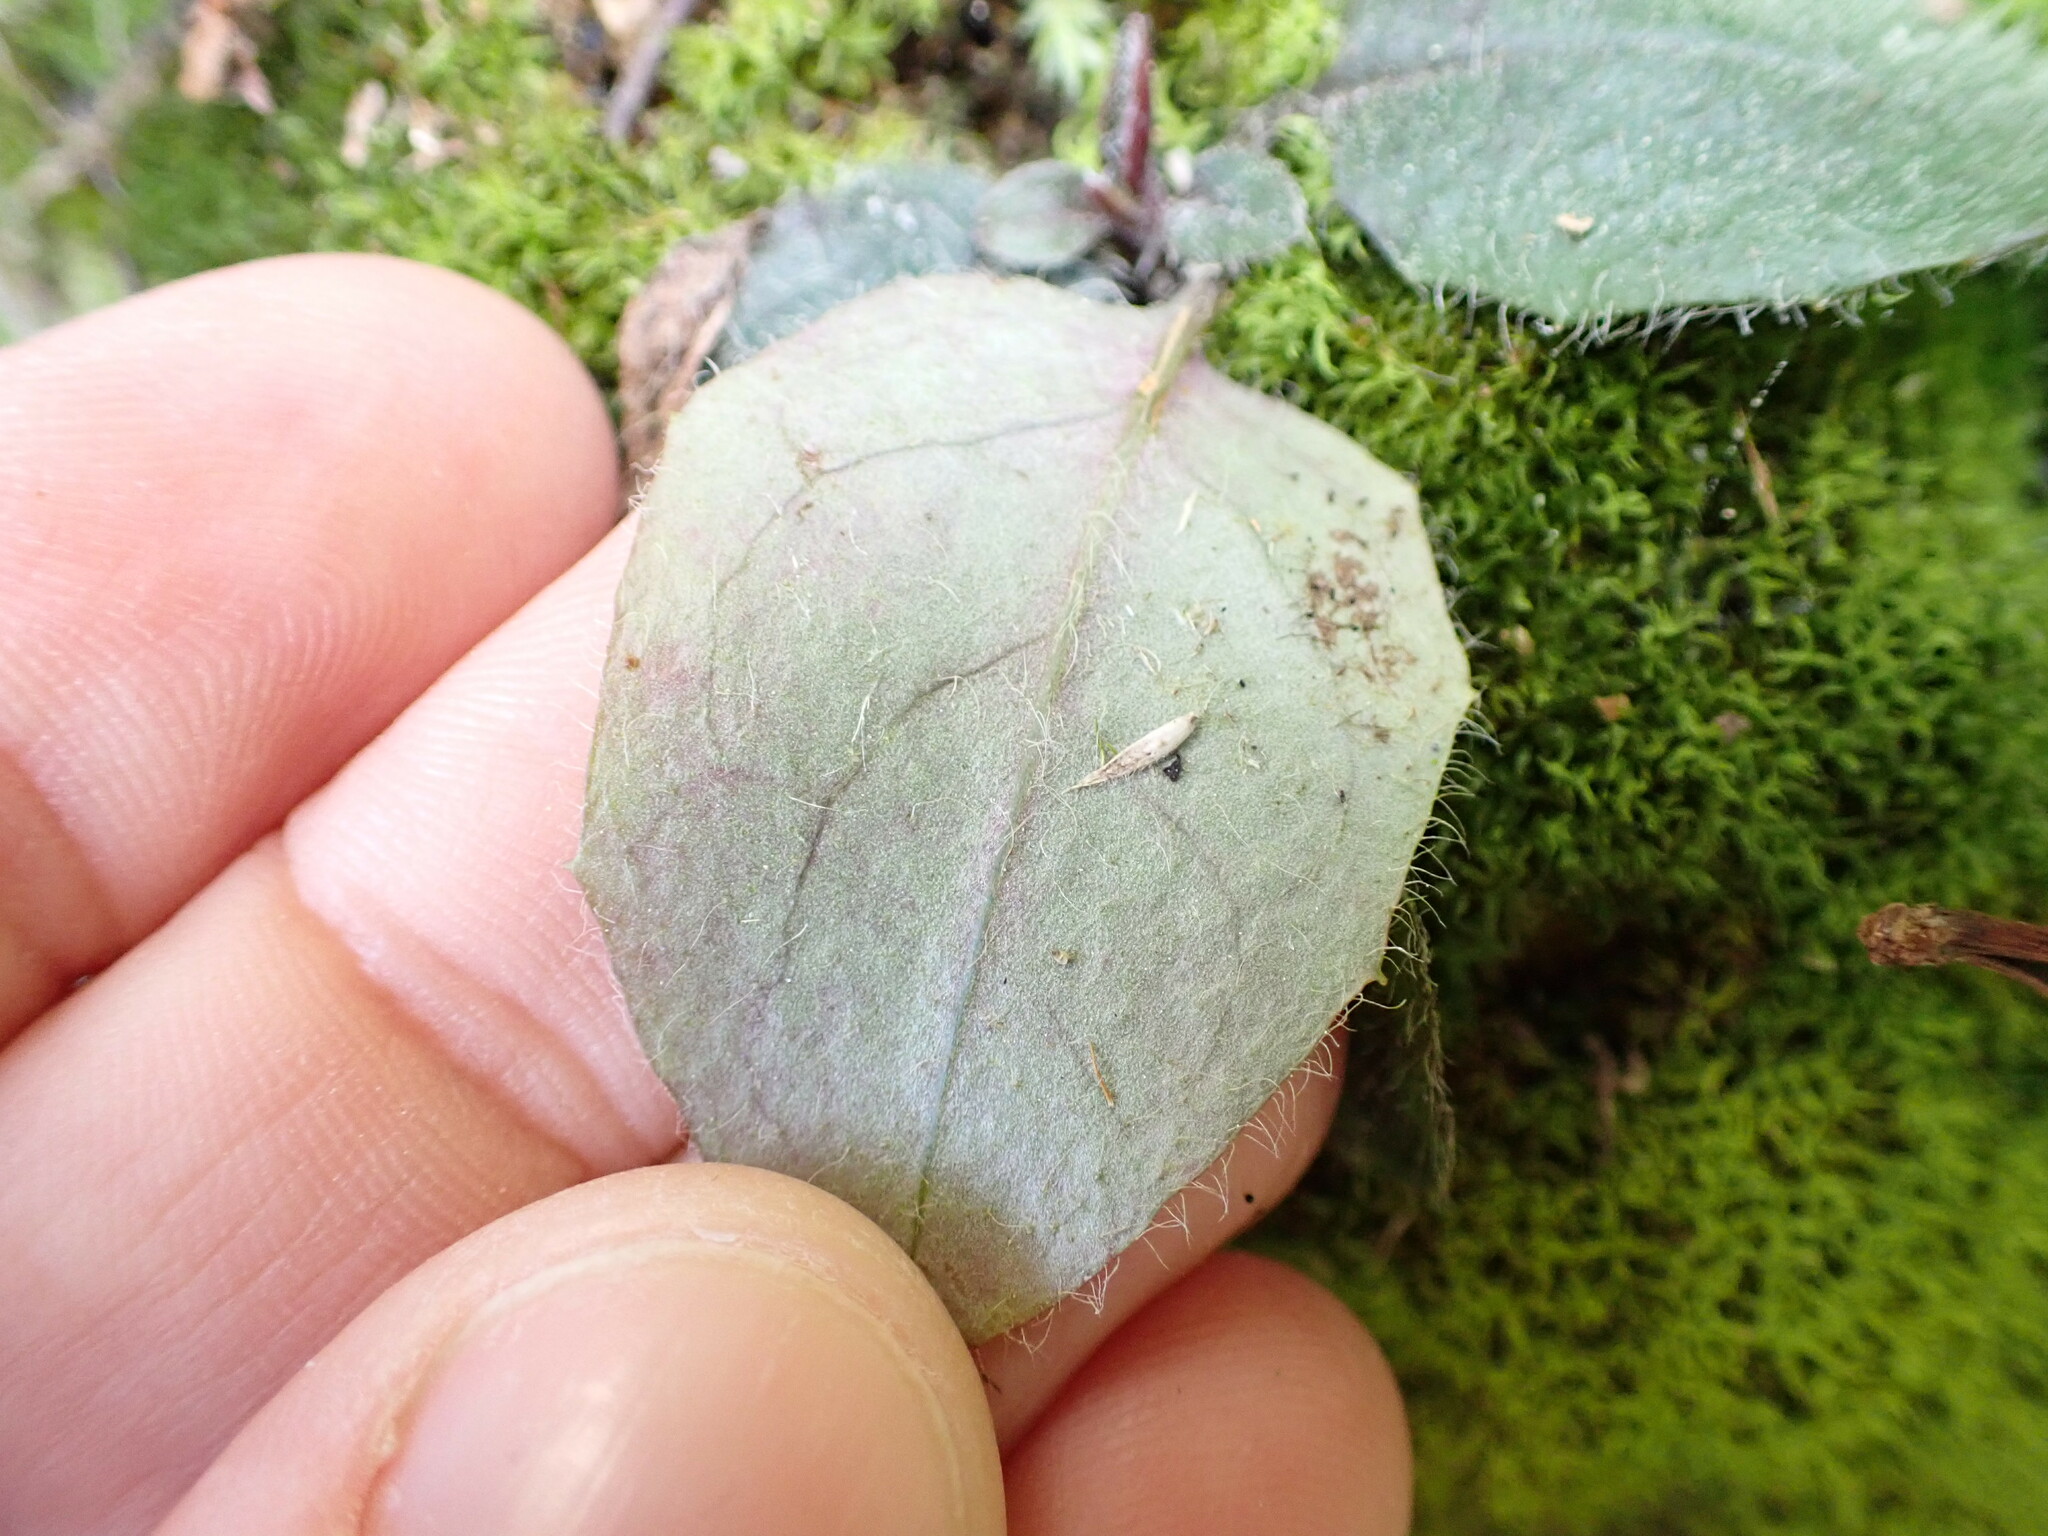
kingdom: Plantae
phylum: Tracheophyta
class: Magnoliopsida
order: Asterales
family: Asteraceae
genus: Hieracium
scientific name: Hieracium lepidulum
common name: Irregular-toothed hawkweed
